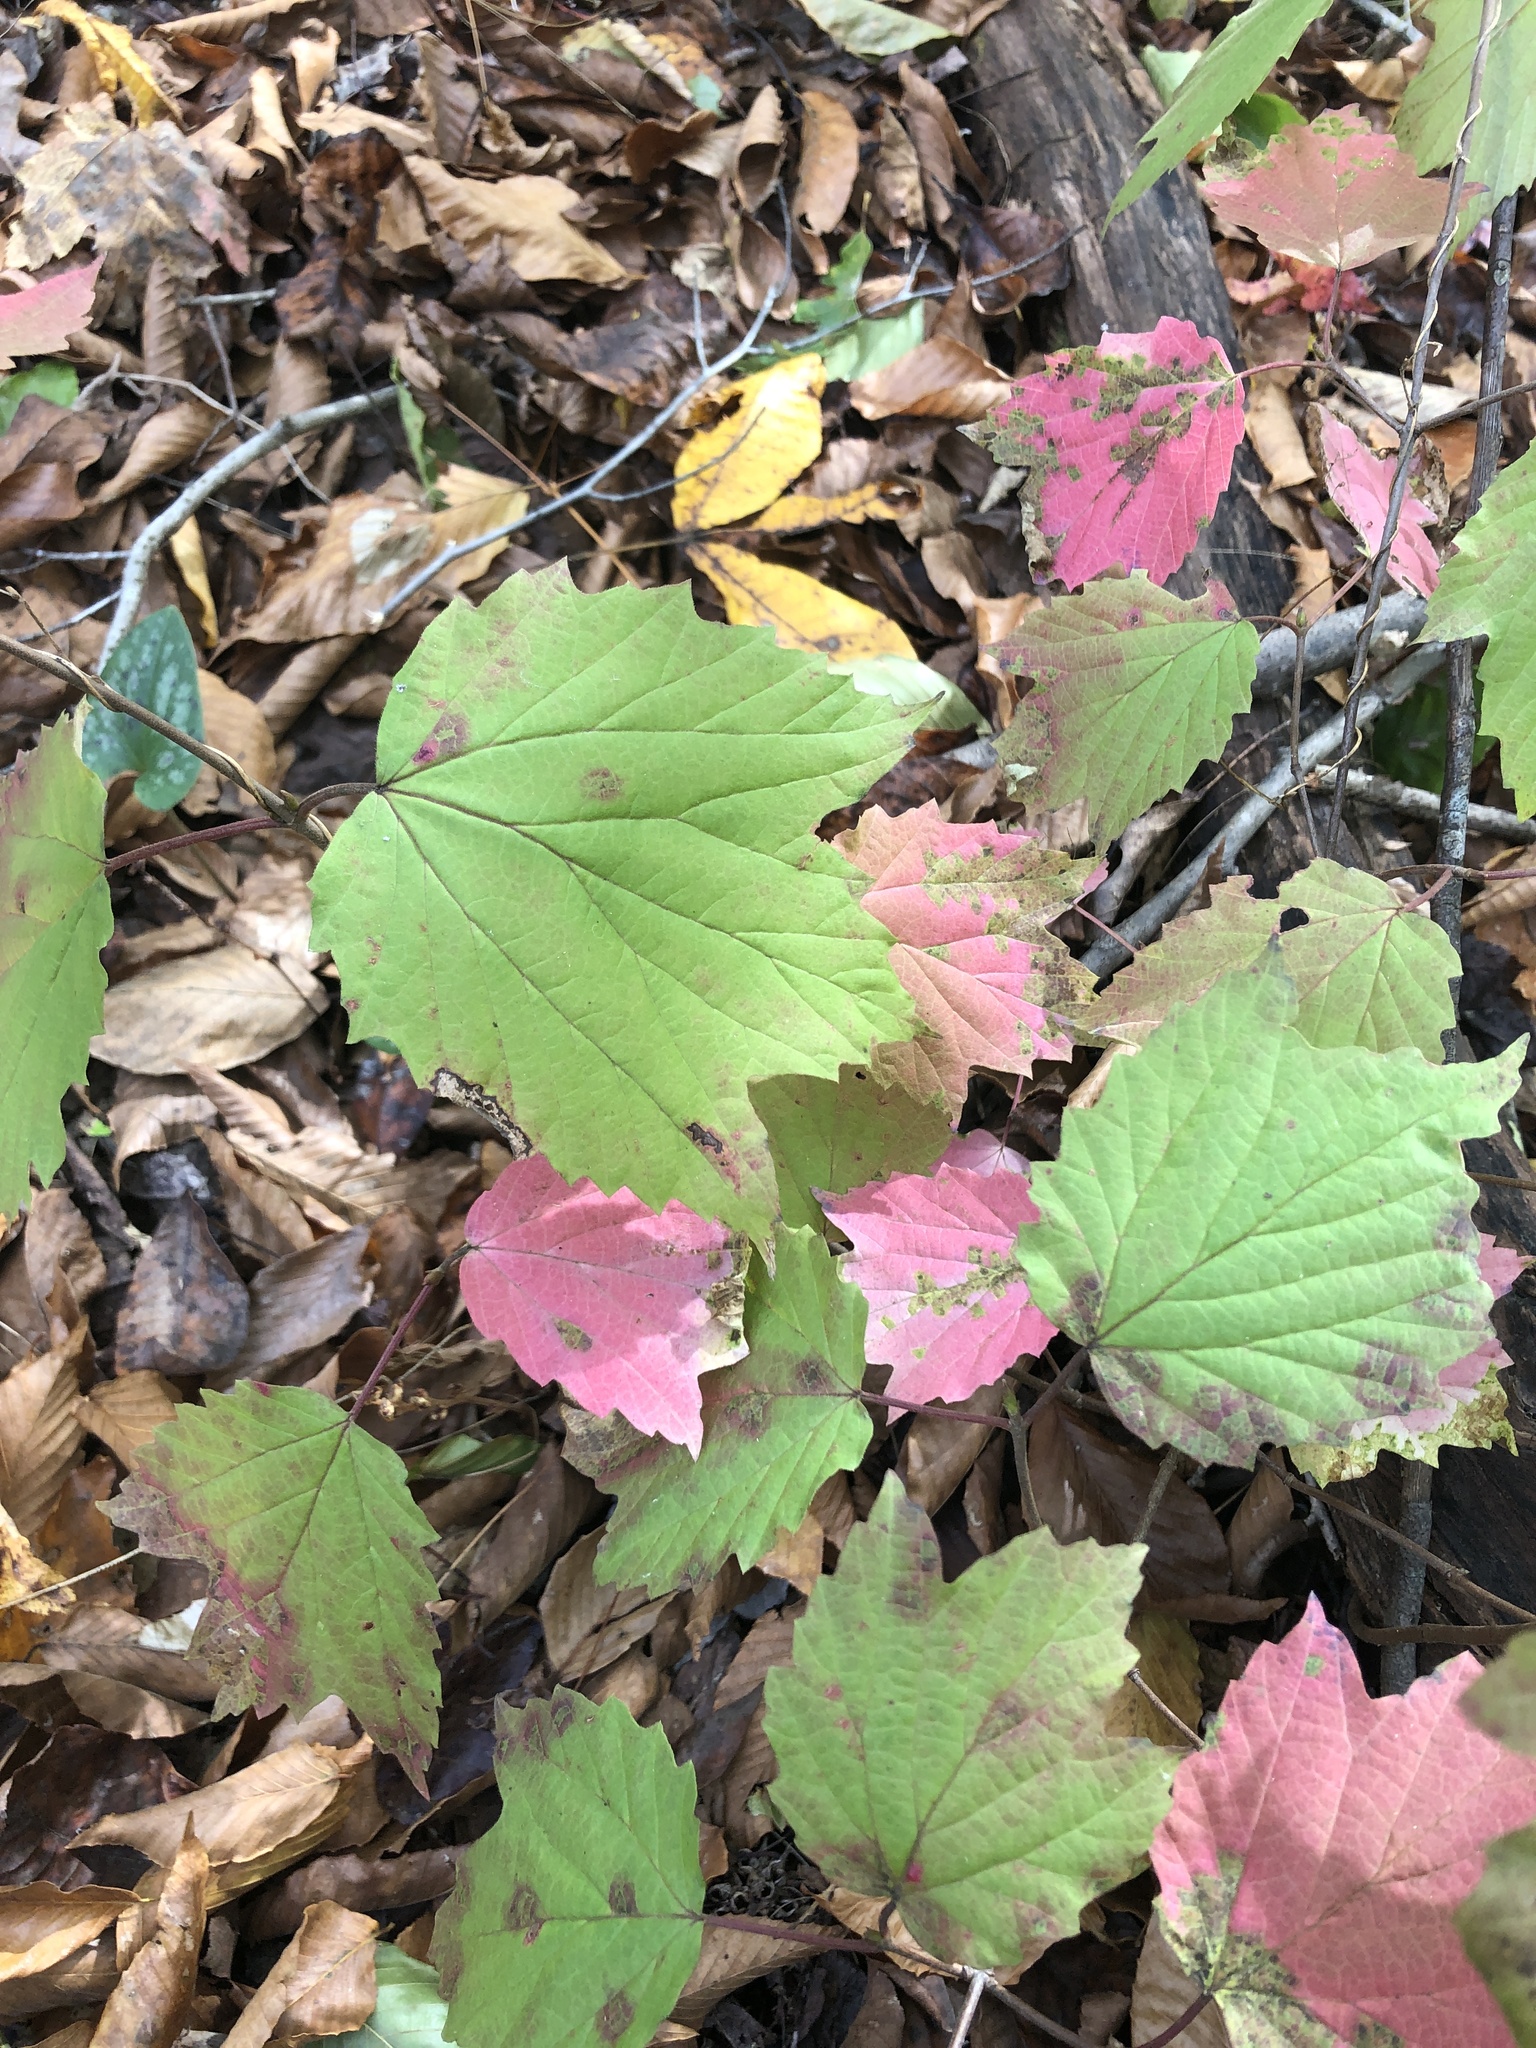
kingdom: Plantae
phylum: Tracheophyta
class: Magnoliopsida
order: Dipsacales
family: Viburnaceae
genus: Viburnum
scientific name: Viburnum acerifolium
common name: Dockmackie
